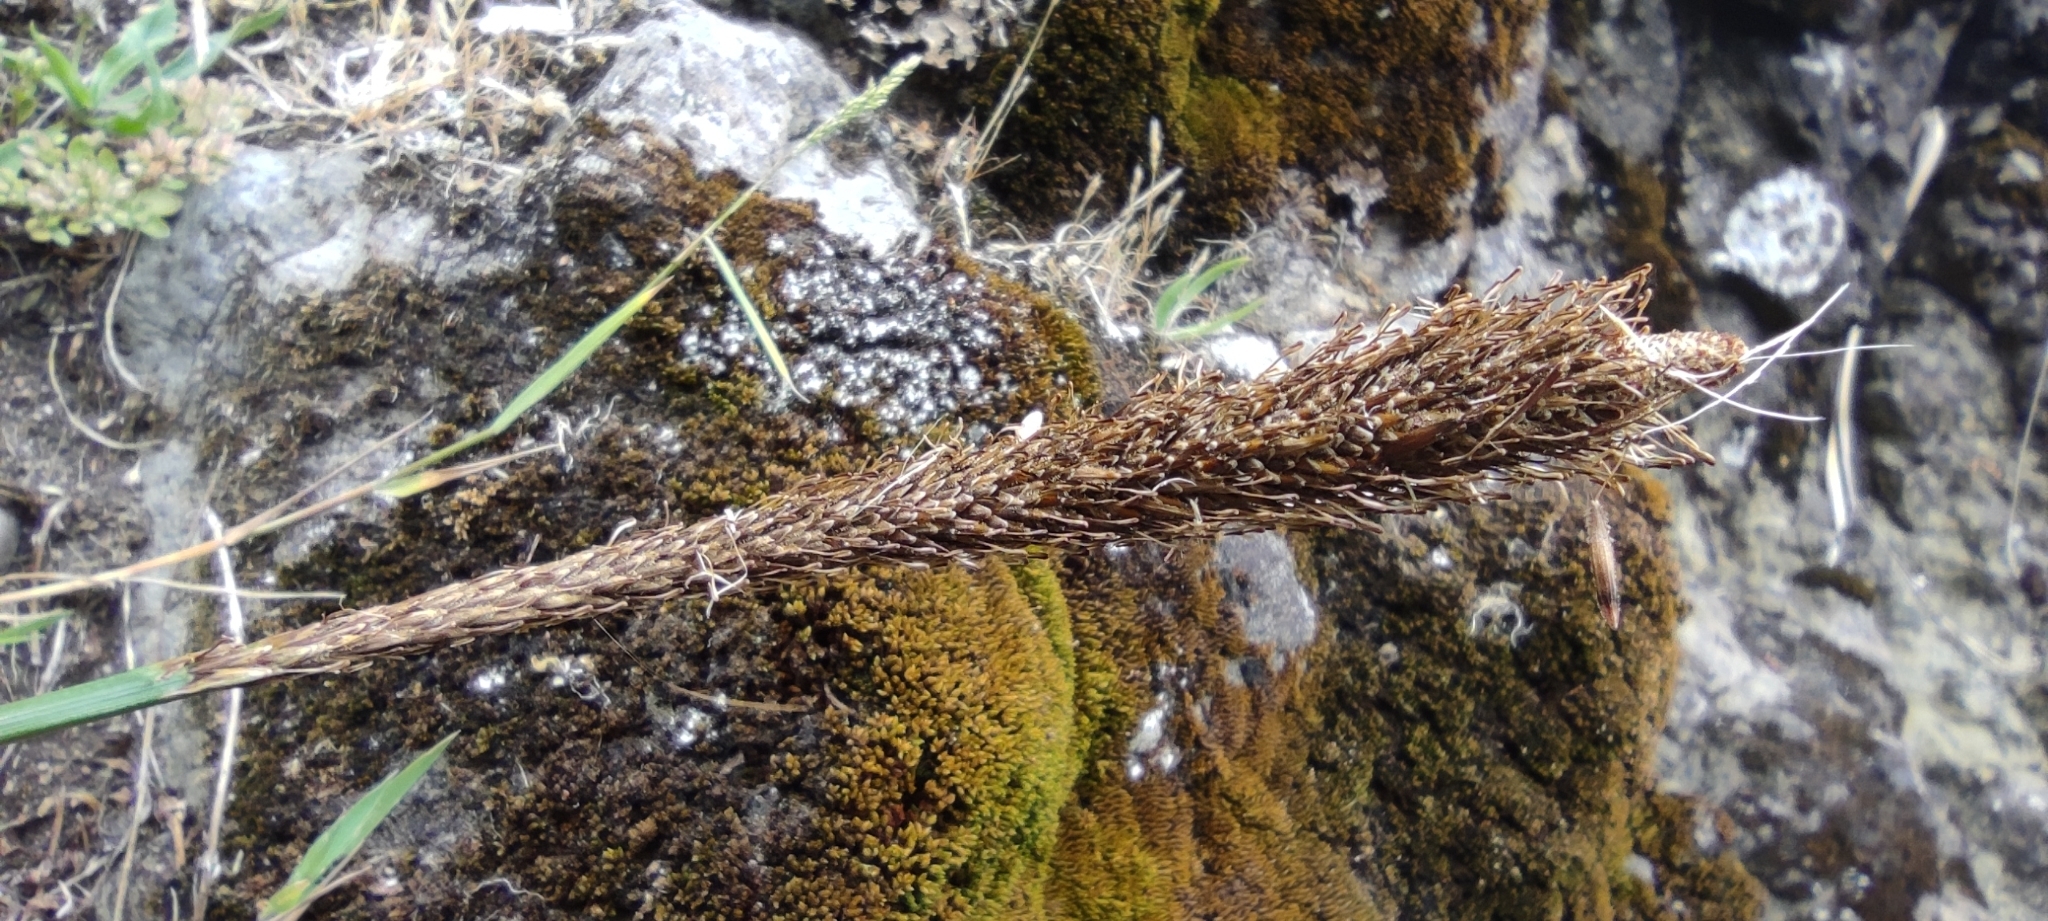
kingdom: Plantae
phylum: Tracheophyta
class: Liliopsida
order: Poales
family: Cyperaceae
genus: Carex
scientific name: Carex phleoides
